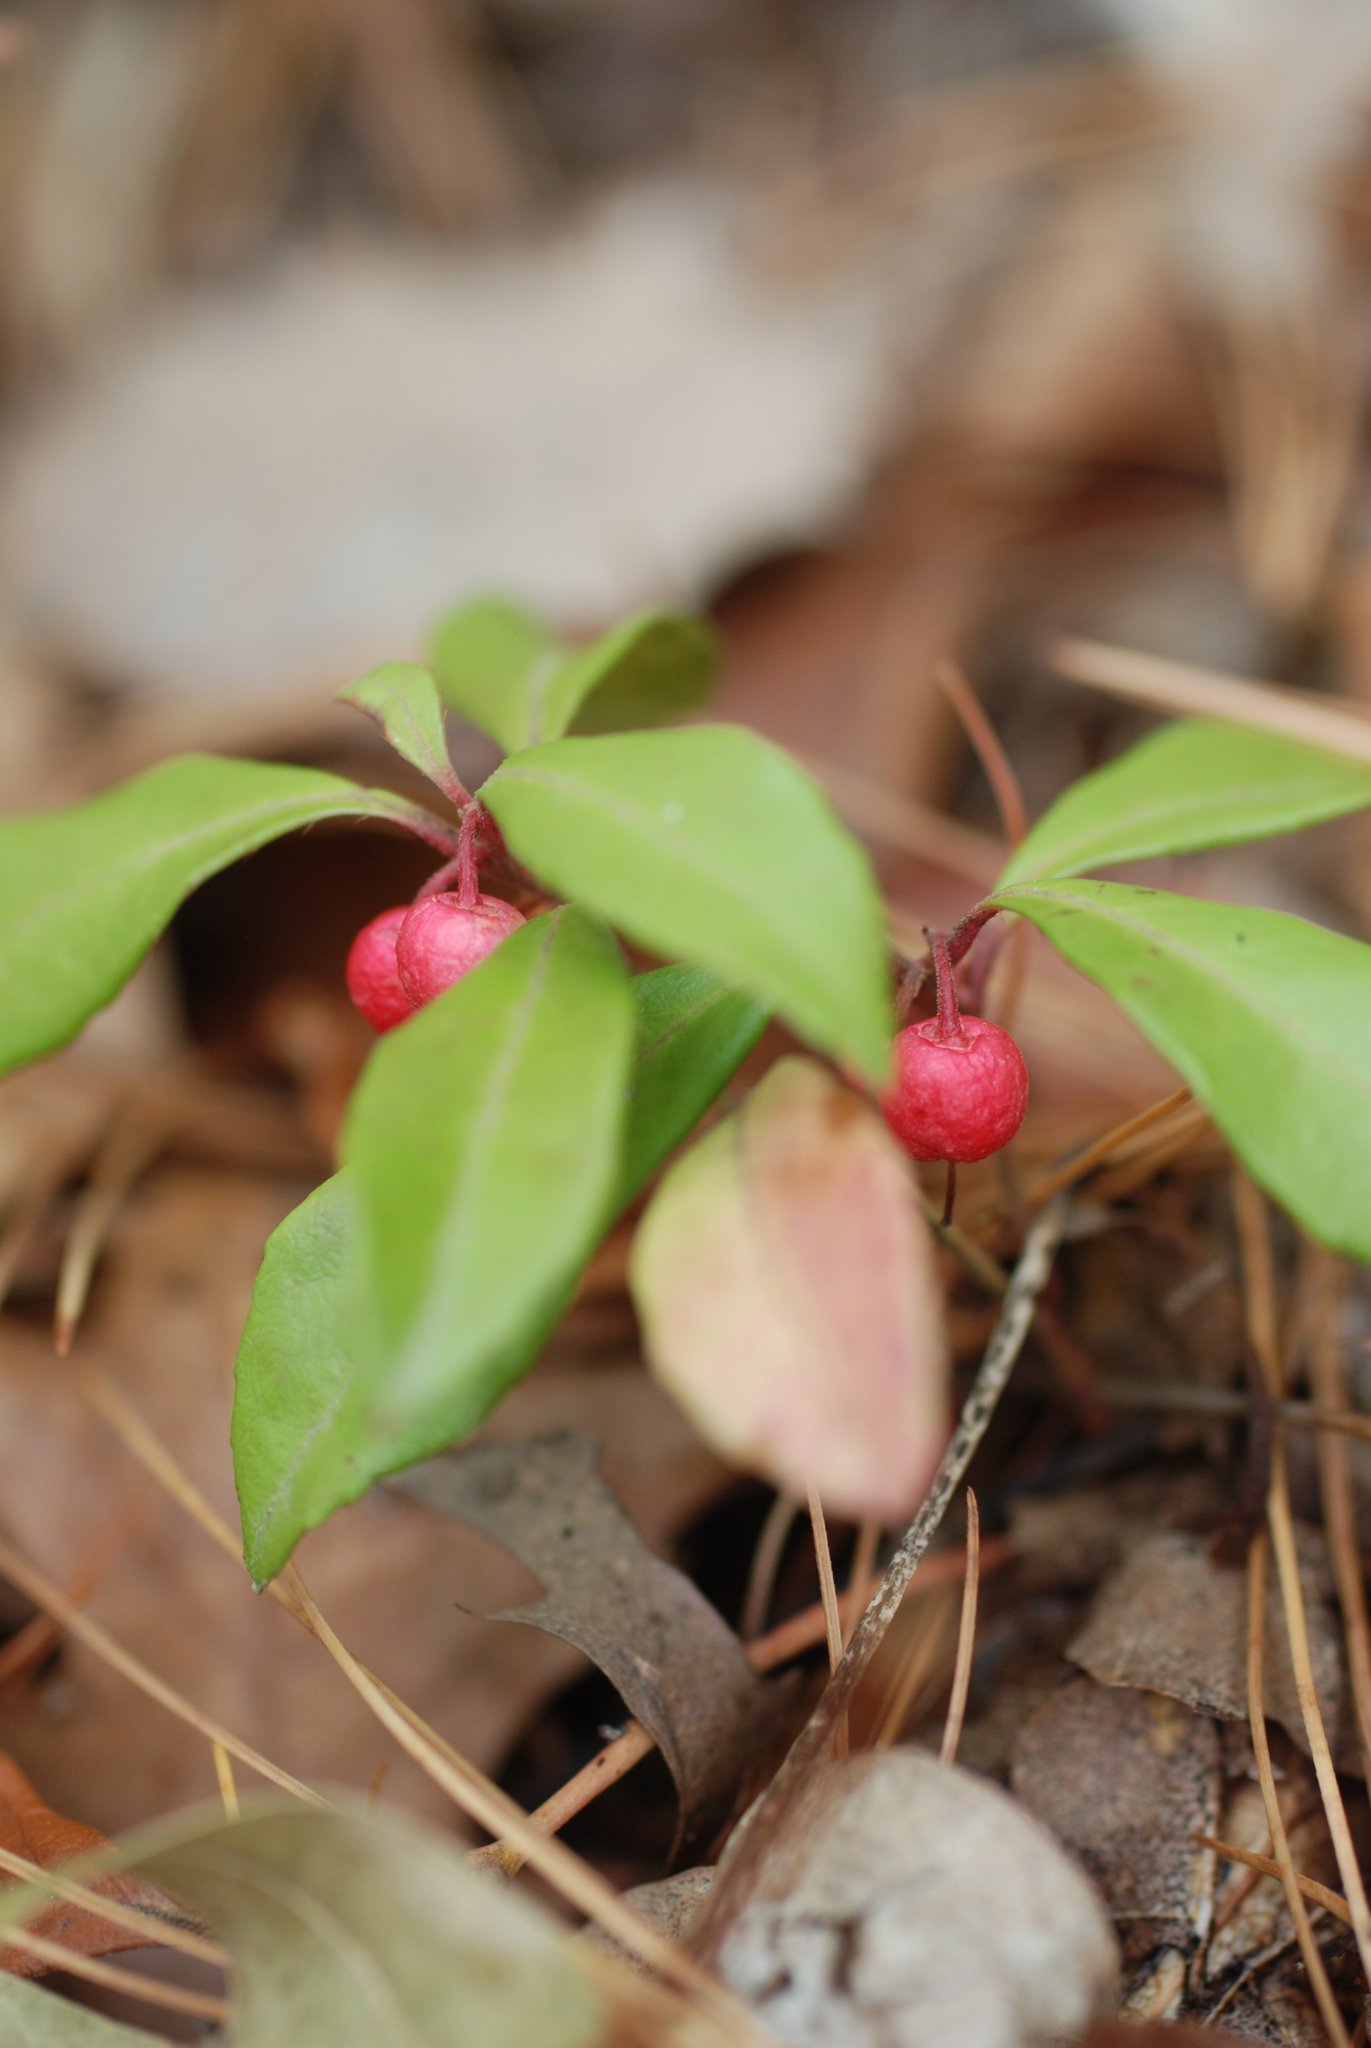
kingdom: Plantae
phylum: Tracheophyta
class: Magnoliopsida
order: Ericales
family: Ericaceae
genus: Gaultheria
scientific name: Gaultheria procumbens
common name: Checkerberry
